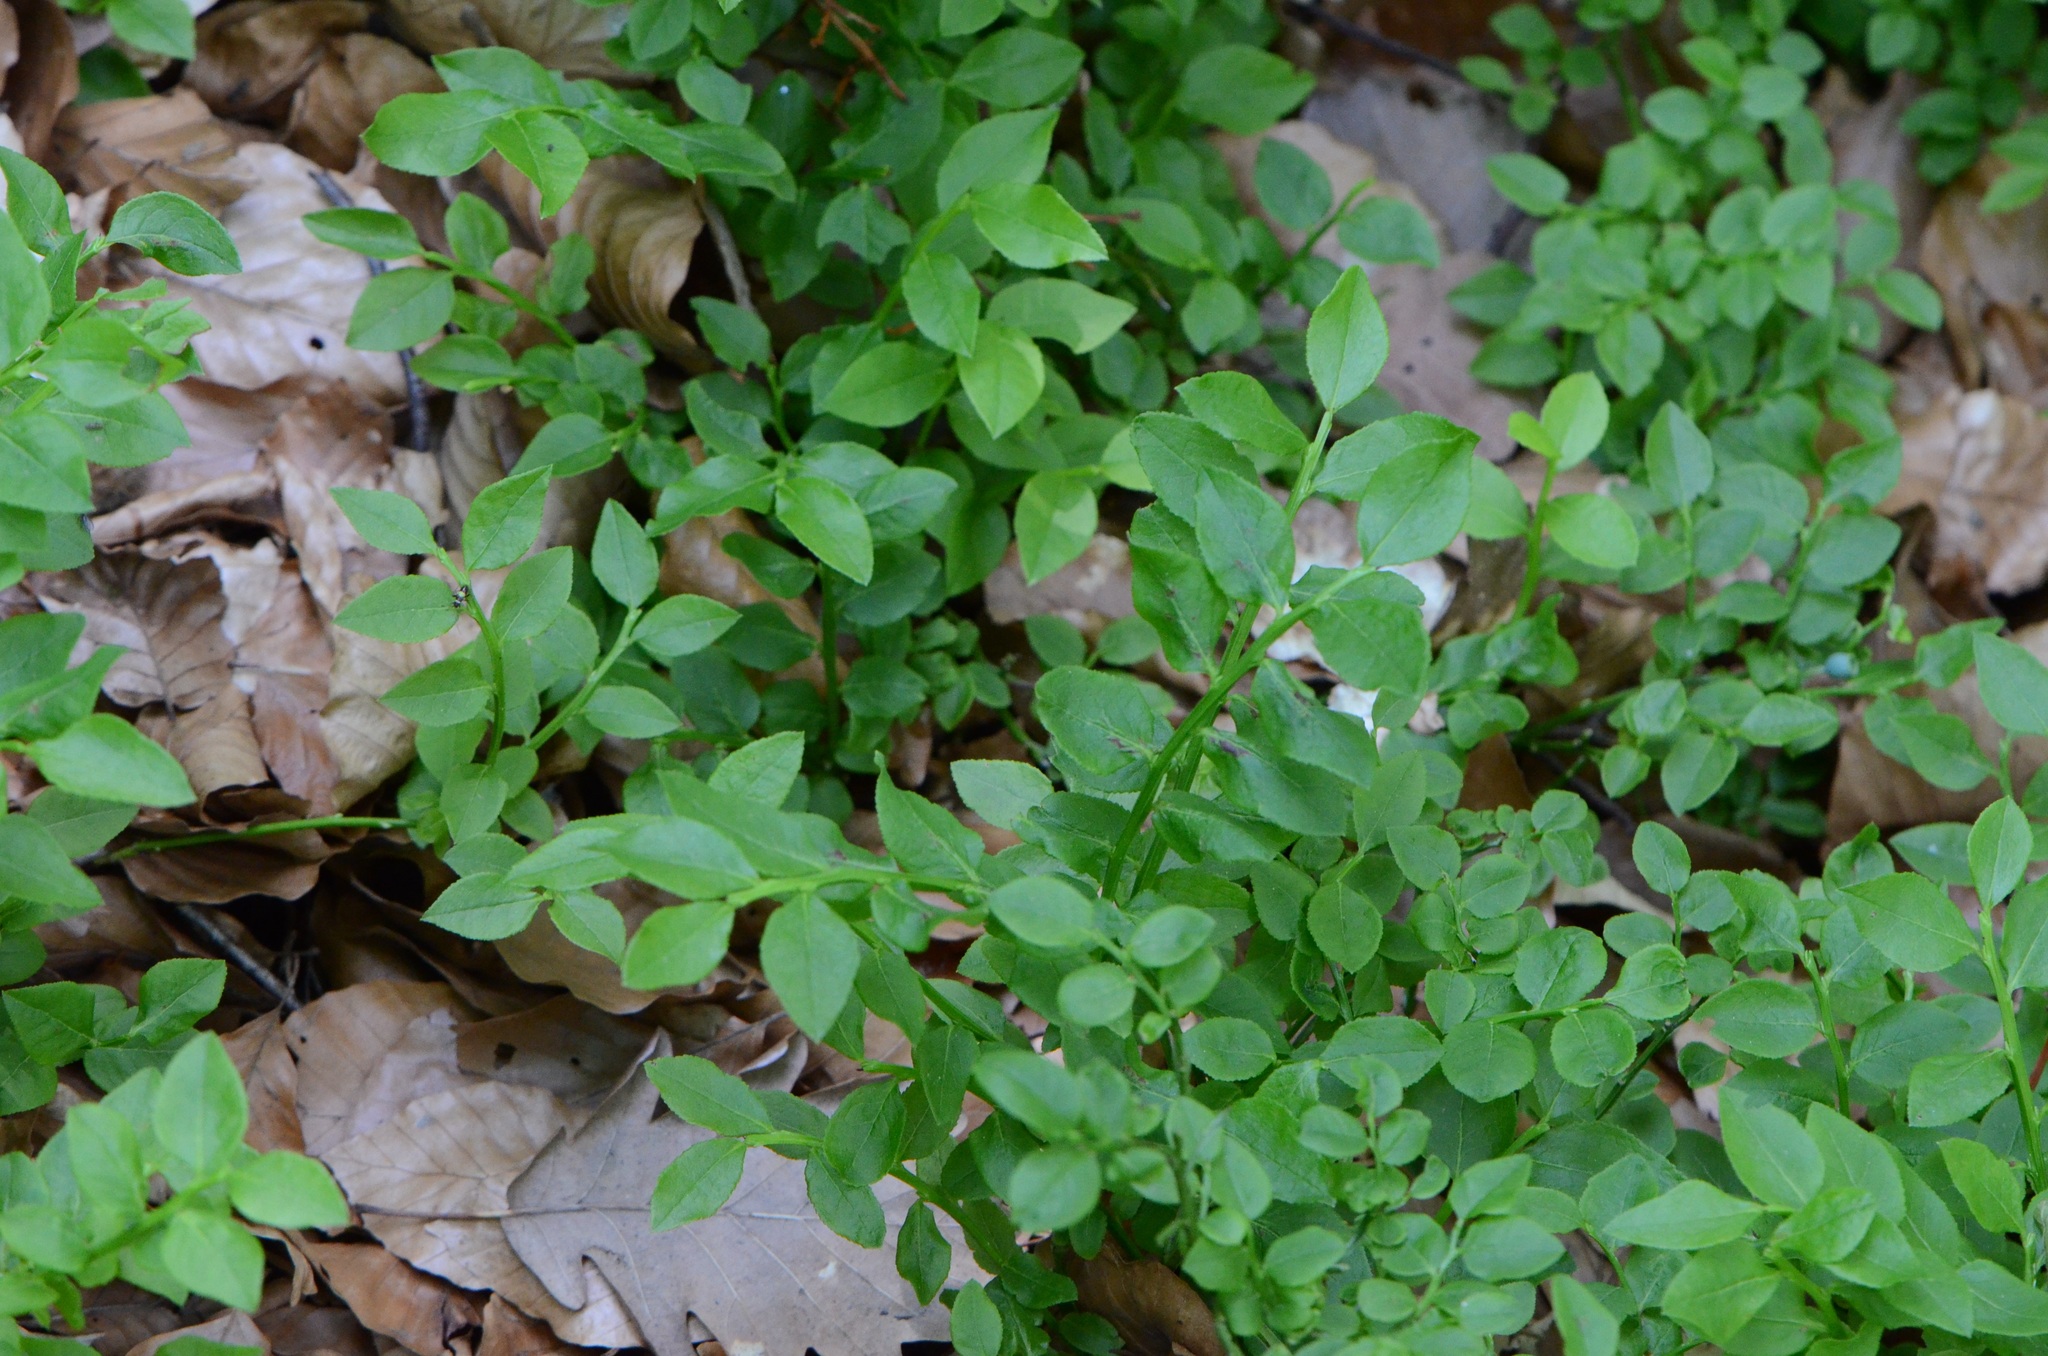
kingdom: Plantae
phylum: Tracheophyta
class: Magnoliopsida
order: Ericales
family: Ericaceae
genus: Vaccinium
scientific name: Vaccinium myrtillus
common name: Bilberry
